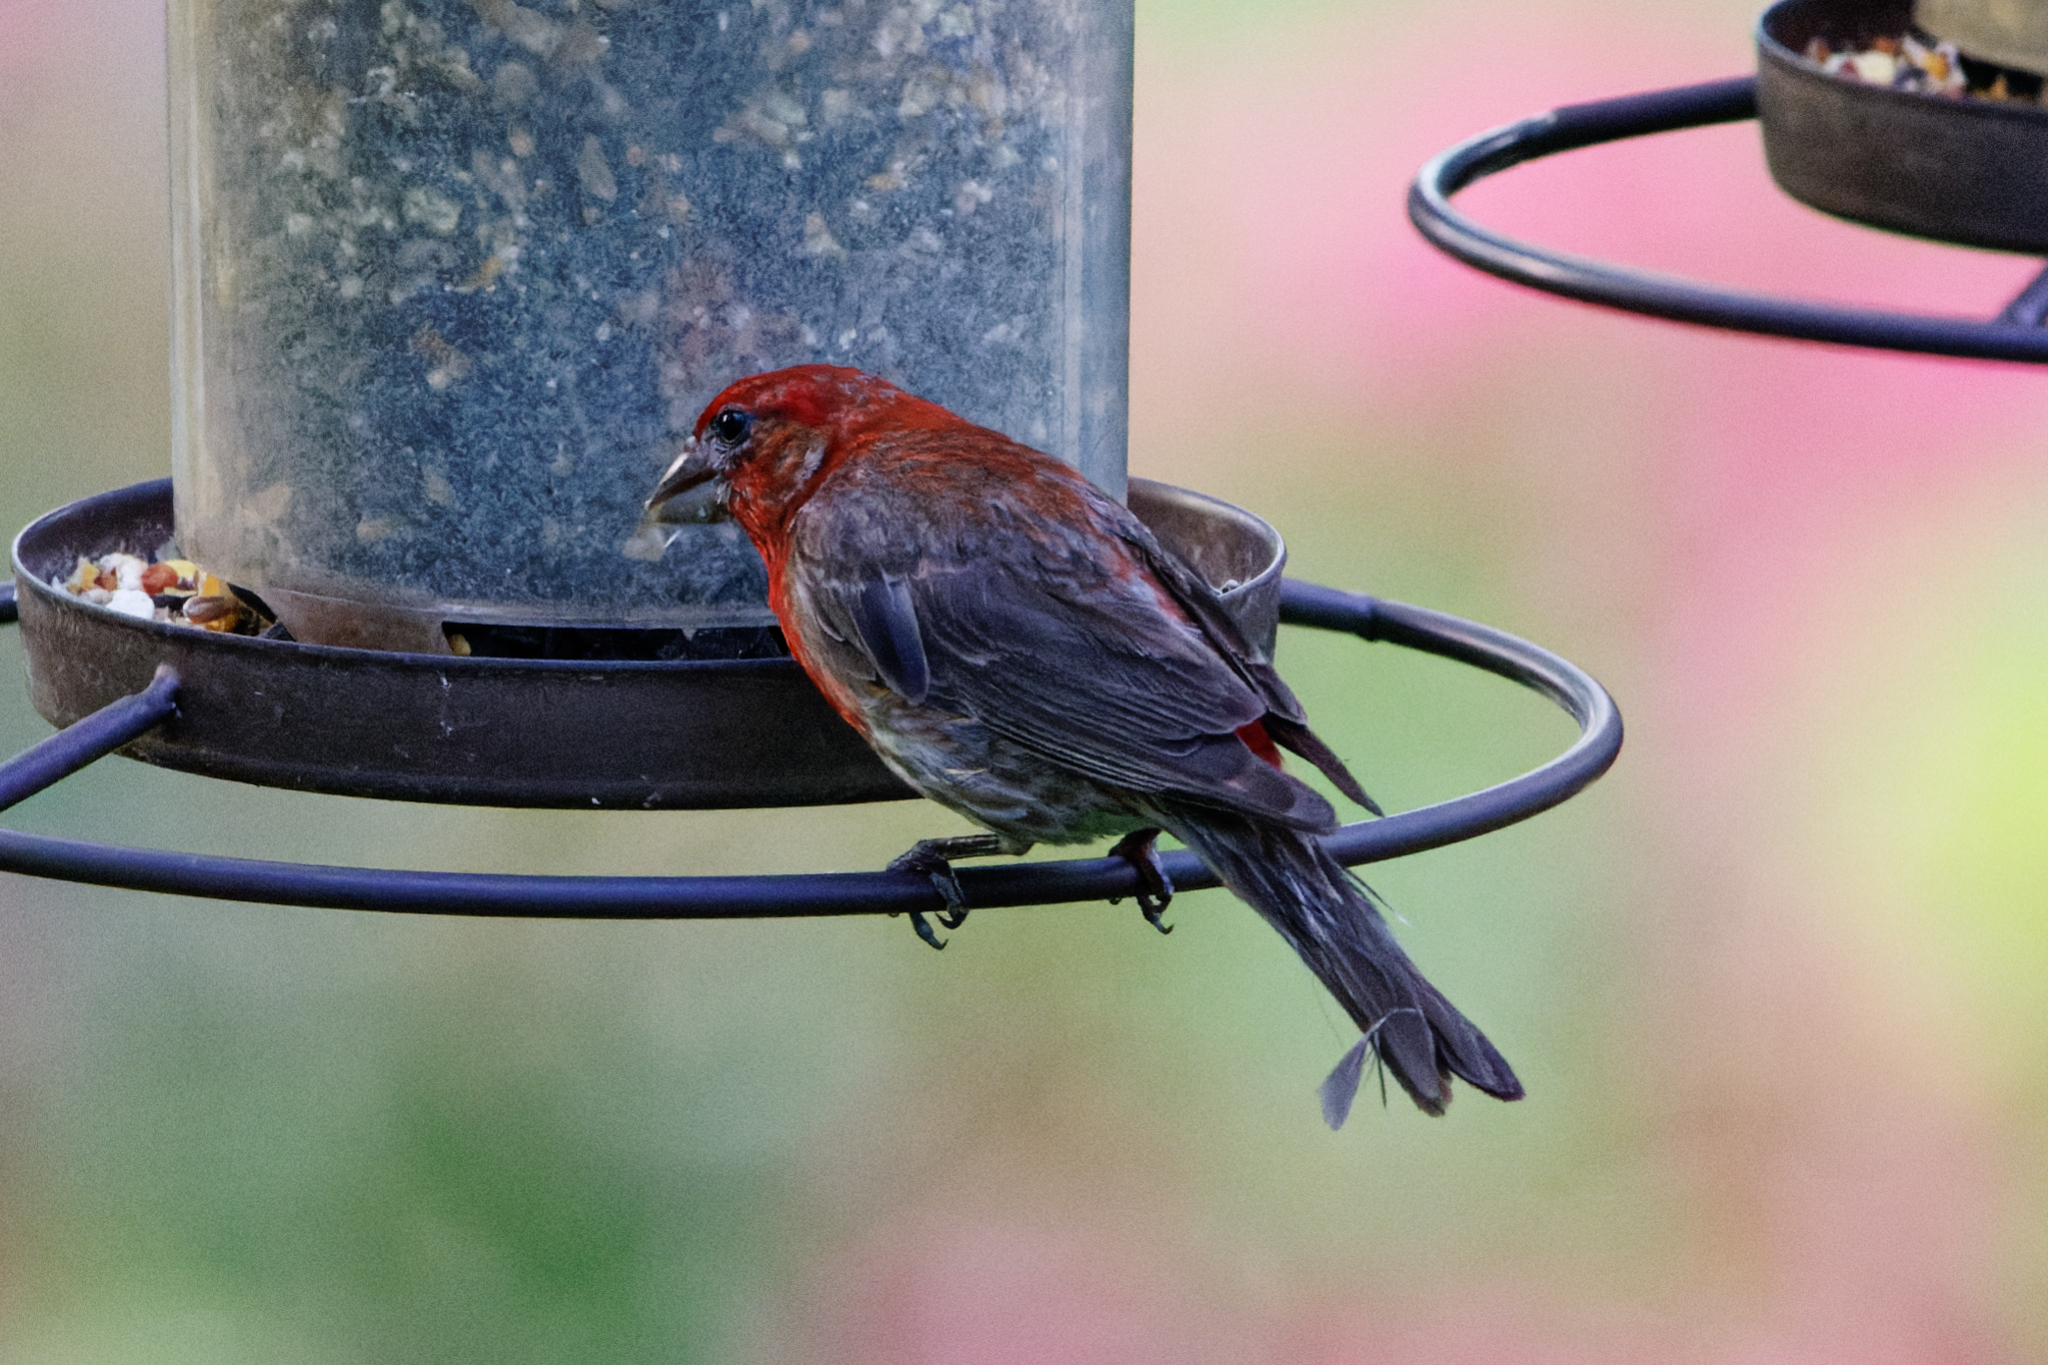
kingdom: Animalia
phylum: Chordata
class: Aves
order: Passeriformes
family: Fringillidae
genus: Haemorhous
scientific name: Haemorhous mexicanus
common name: House finch
